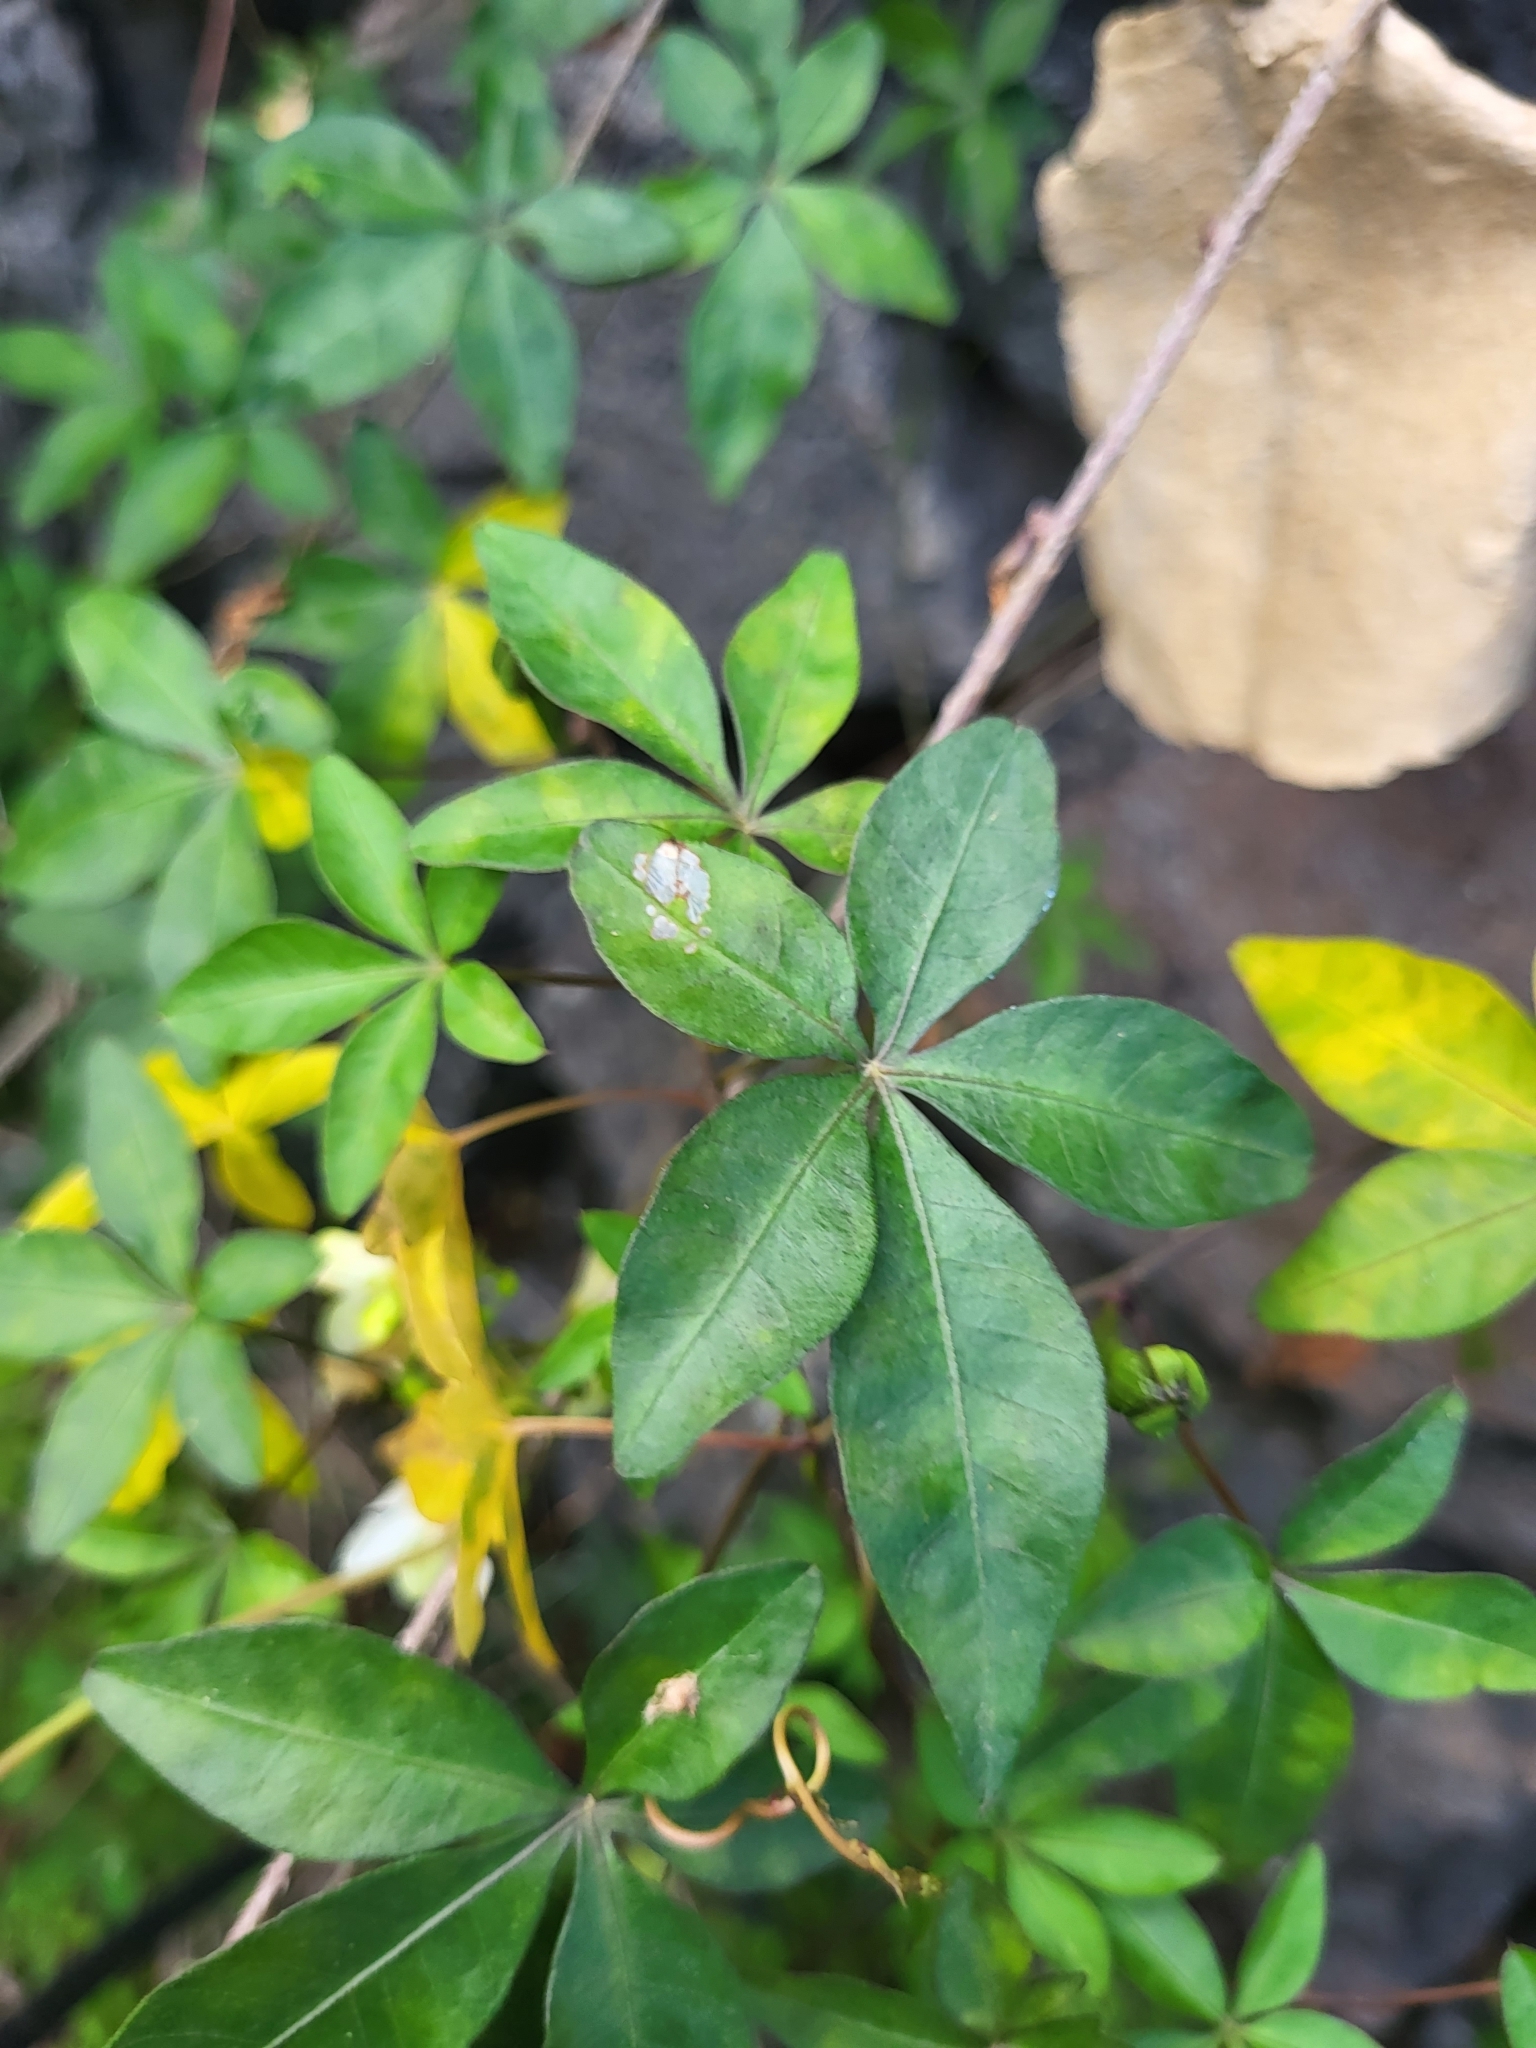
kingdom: Plantae
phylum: Tracheophyta
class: Magnoliopsida
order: Solanales
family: Convolvulaceae
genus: Ipomoea
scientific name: Ipomoea cairica
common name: Mile a minute vine
